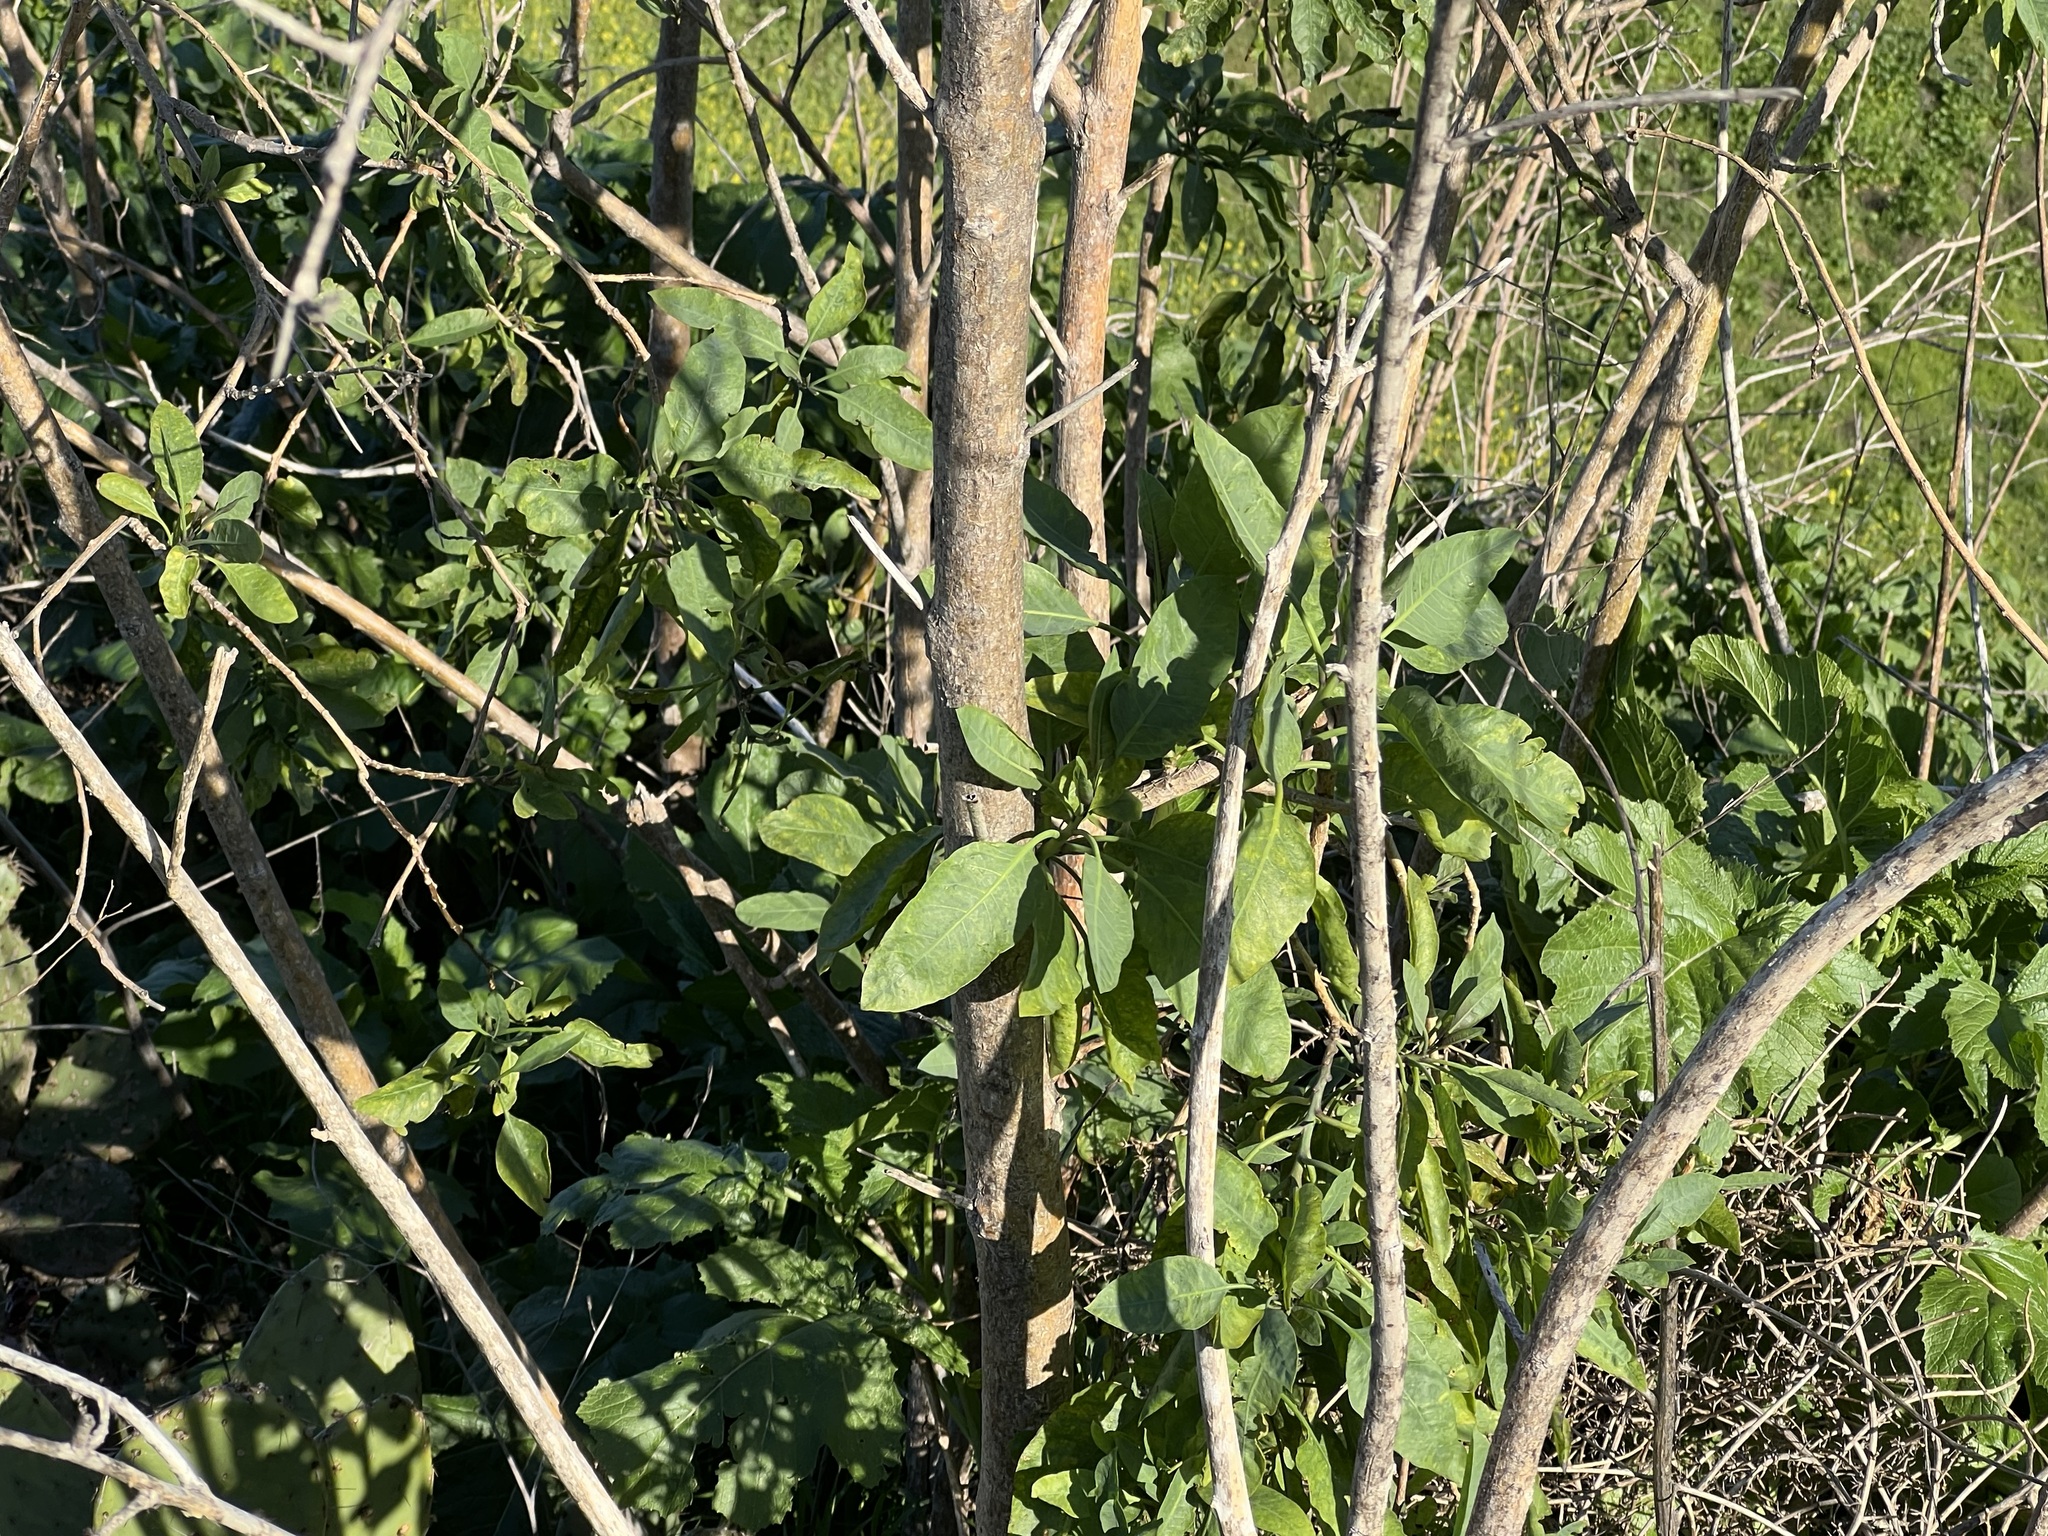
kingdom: Plantae
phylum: Tracheophyta
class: Magnoliopsida
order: Solanales
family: Solanaceae
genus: Nicotiana
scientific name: Nicotiana glauca
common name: Tree tobacco
